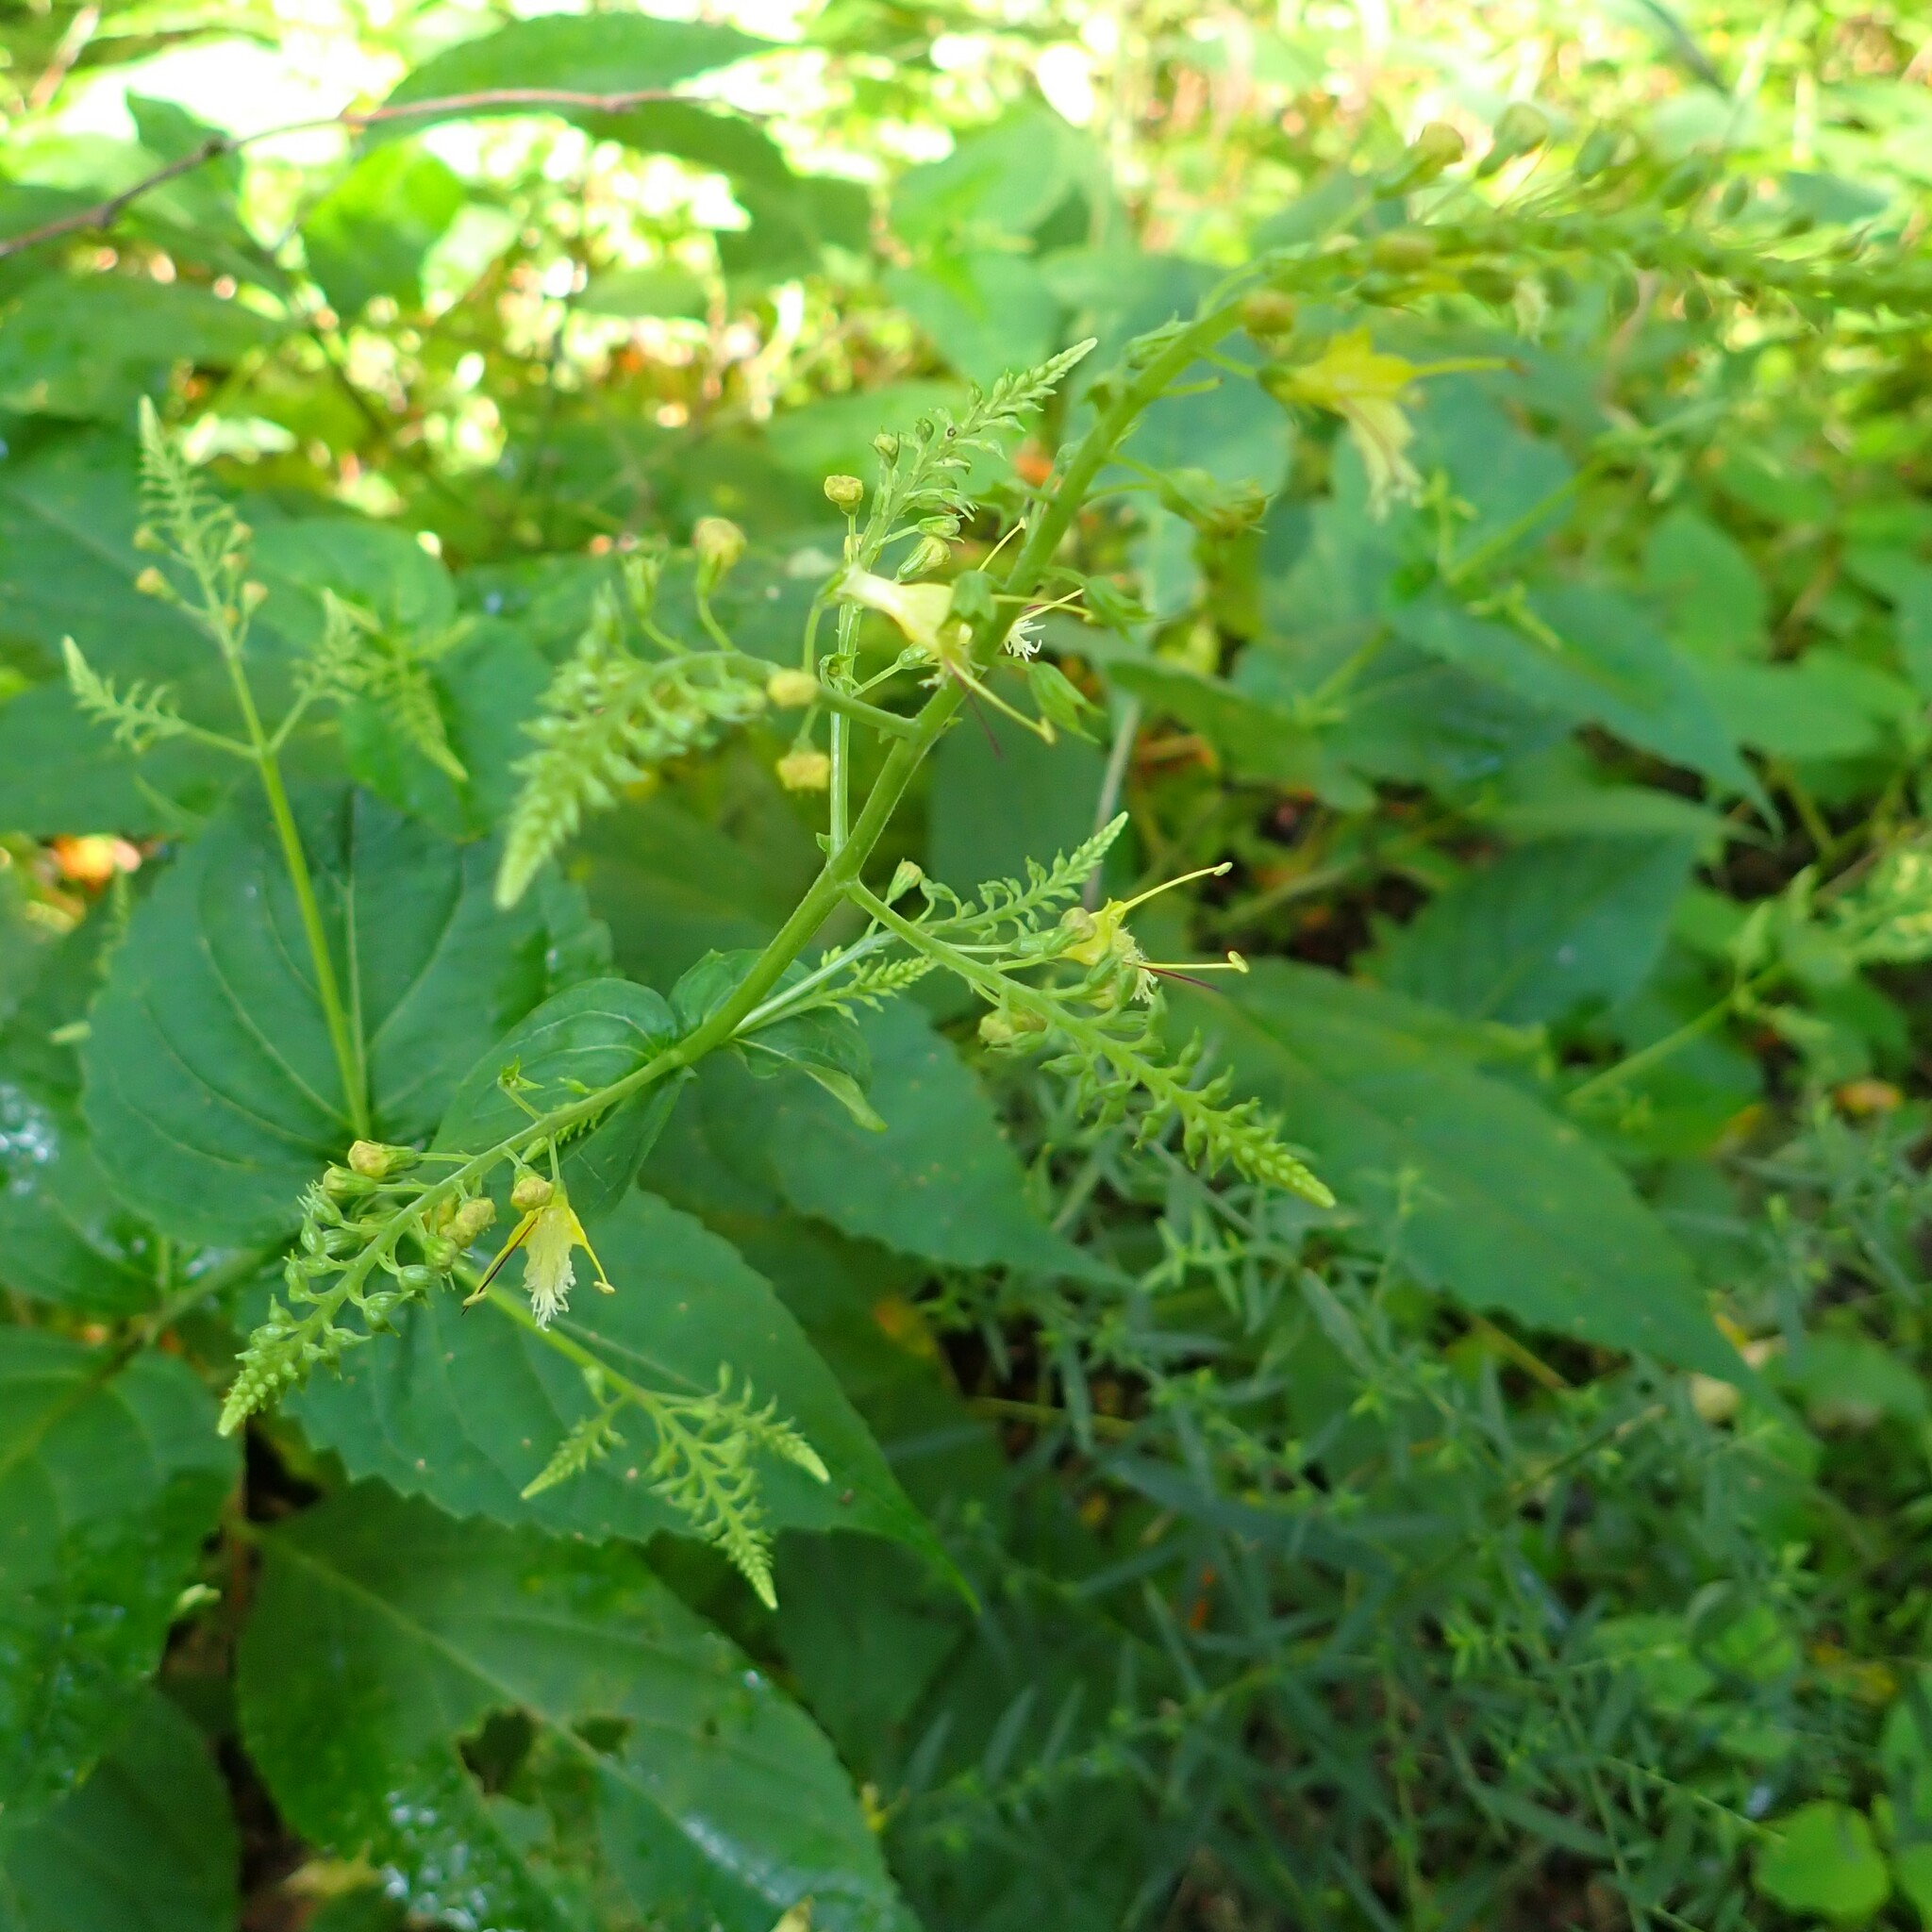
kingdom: Plantae
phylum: Tracheophyta
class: Magnoliopsida
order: Lamiales
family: Lamiaceae
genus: Collinsonia
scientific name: Collinsonia canadensis
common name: Northern horsebalm
